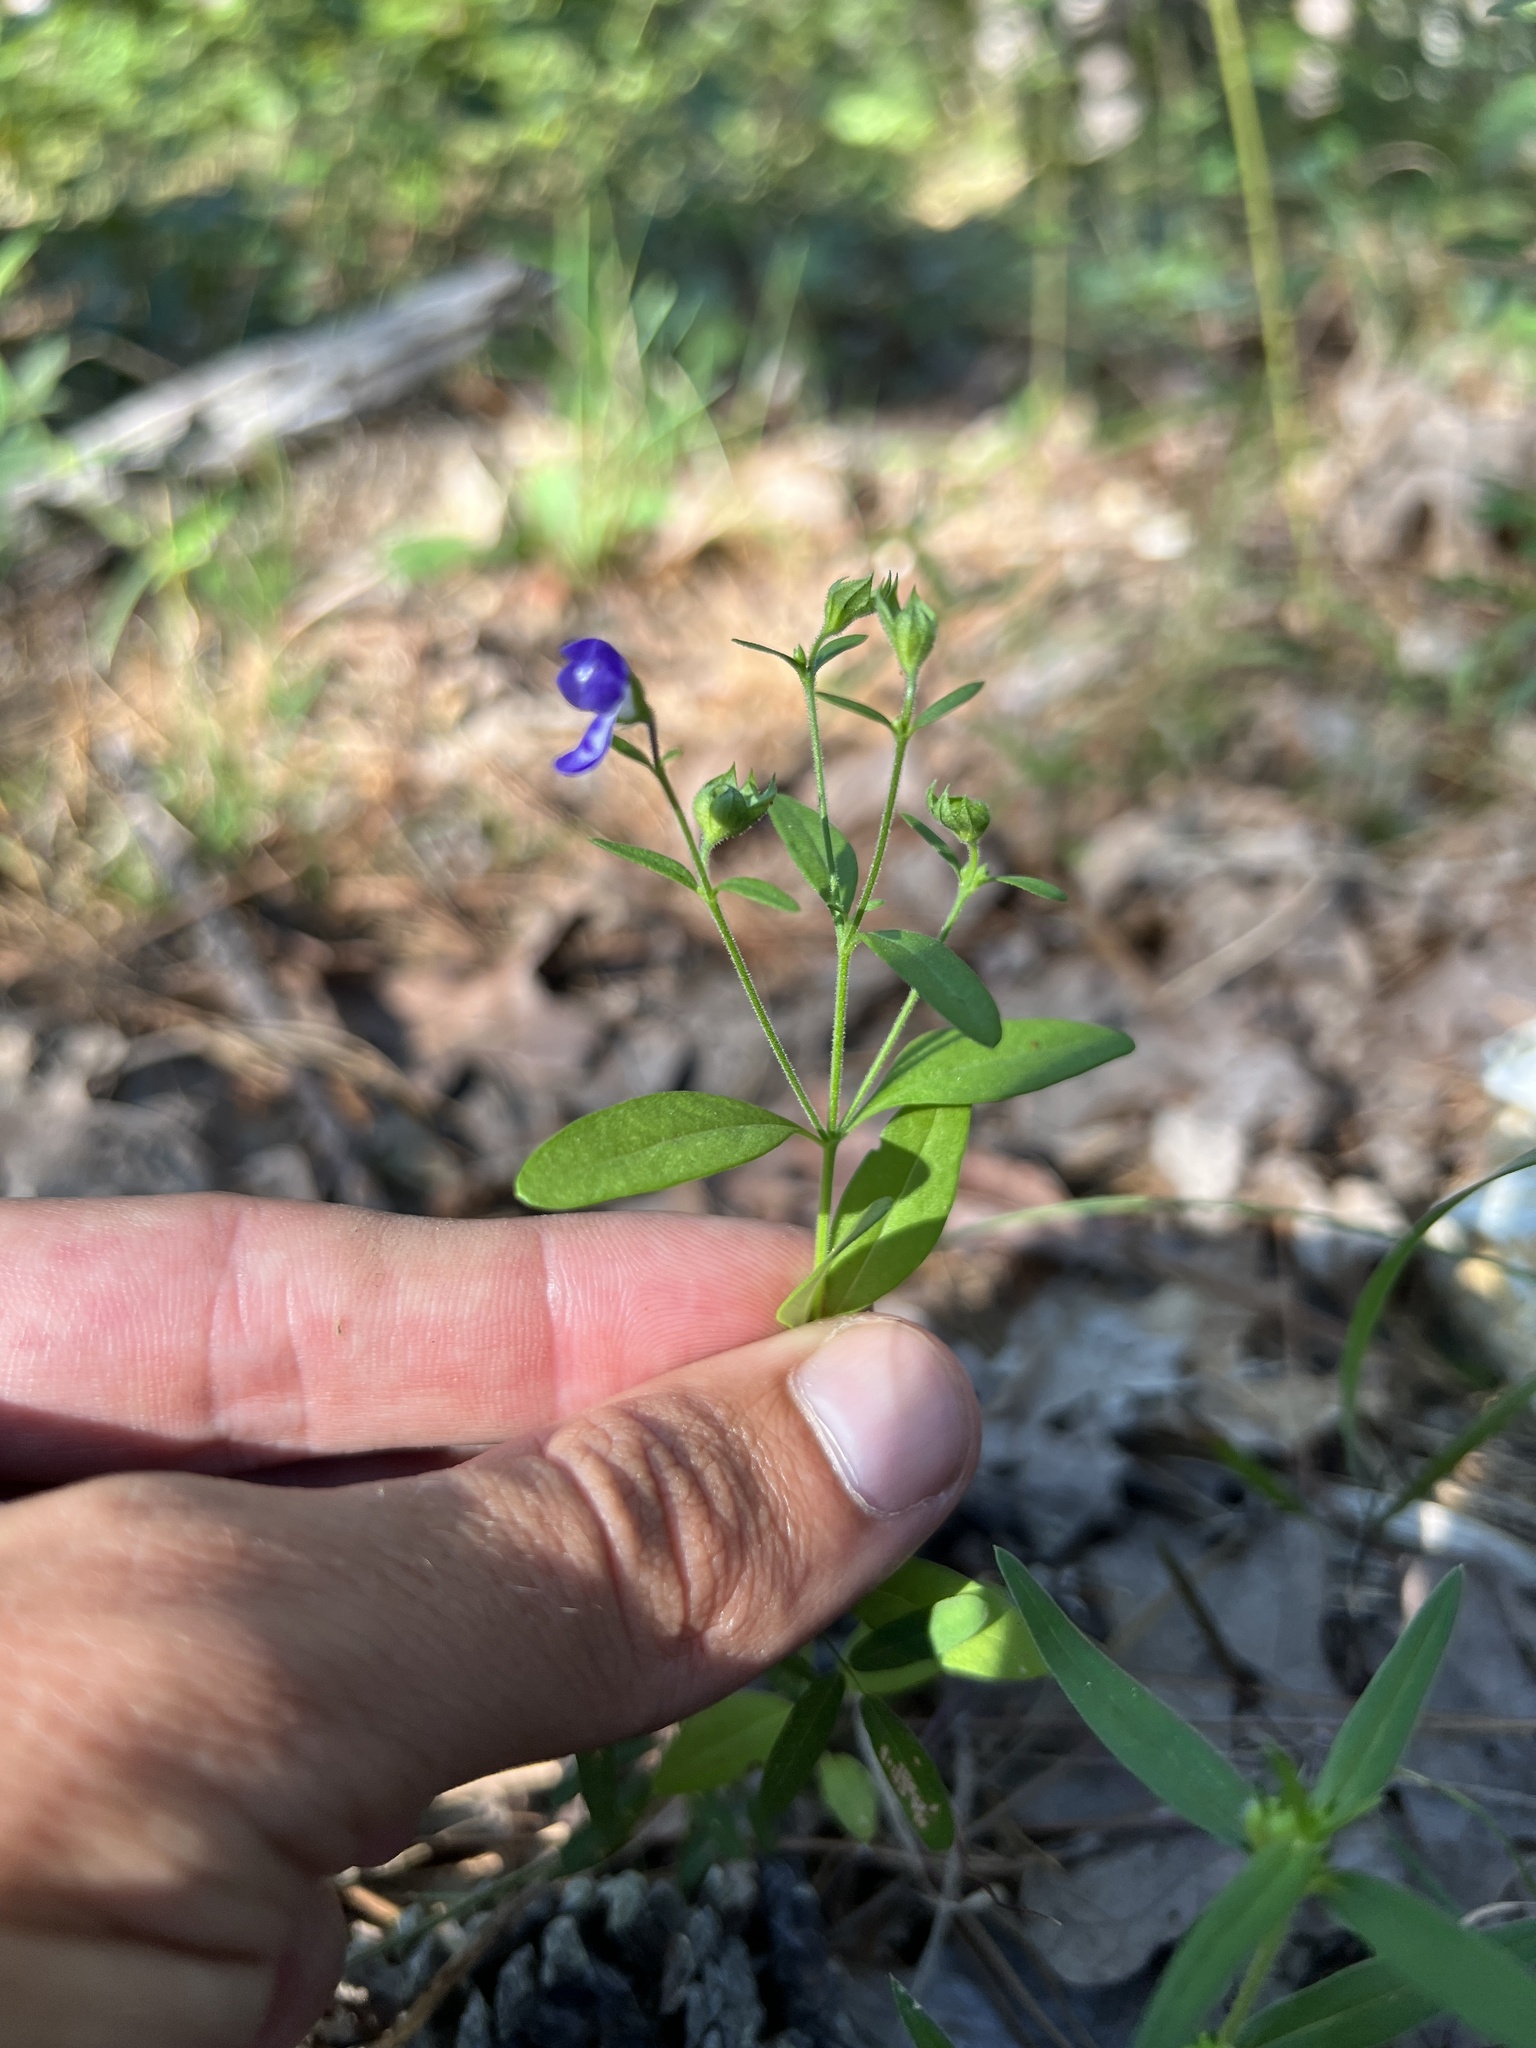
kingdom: Plantae
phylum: Tracheophyta
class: Magnoliopsida
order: Lamiales
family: Lamiaceae
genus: Trichostema
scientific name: Trichostema dichotomum
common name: Bastard pennyroyal
